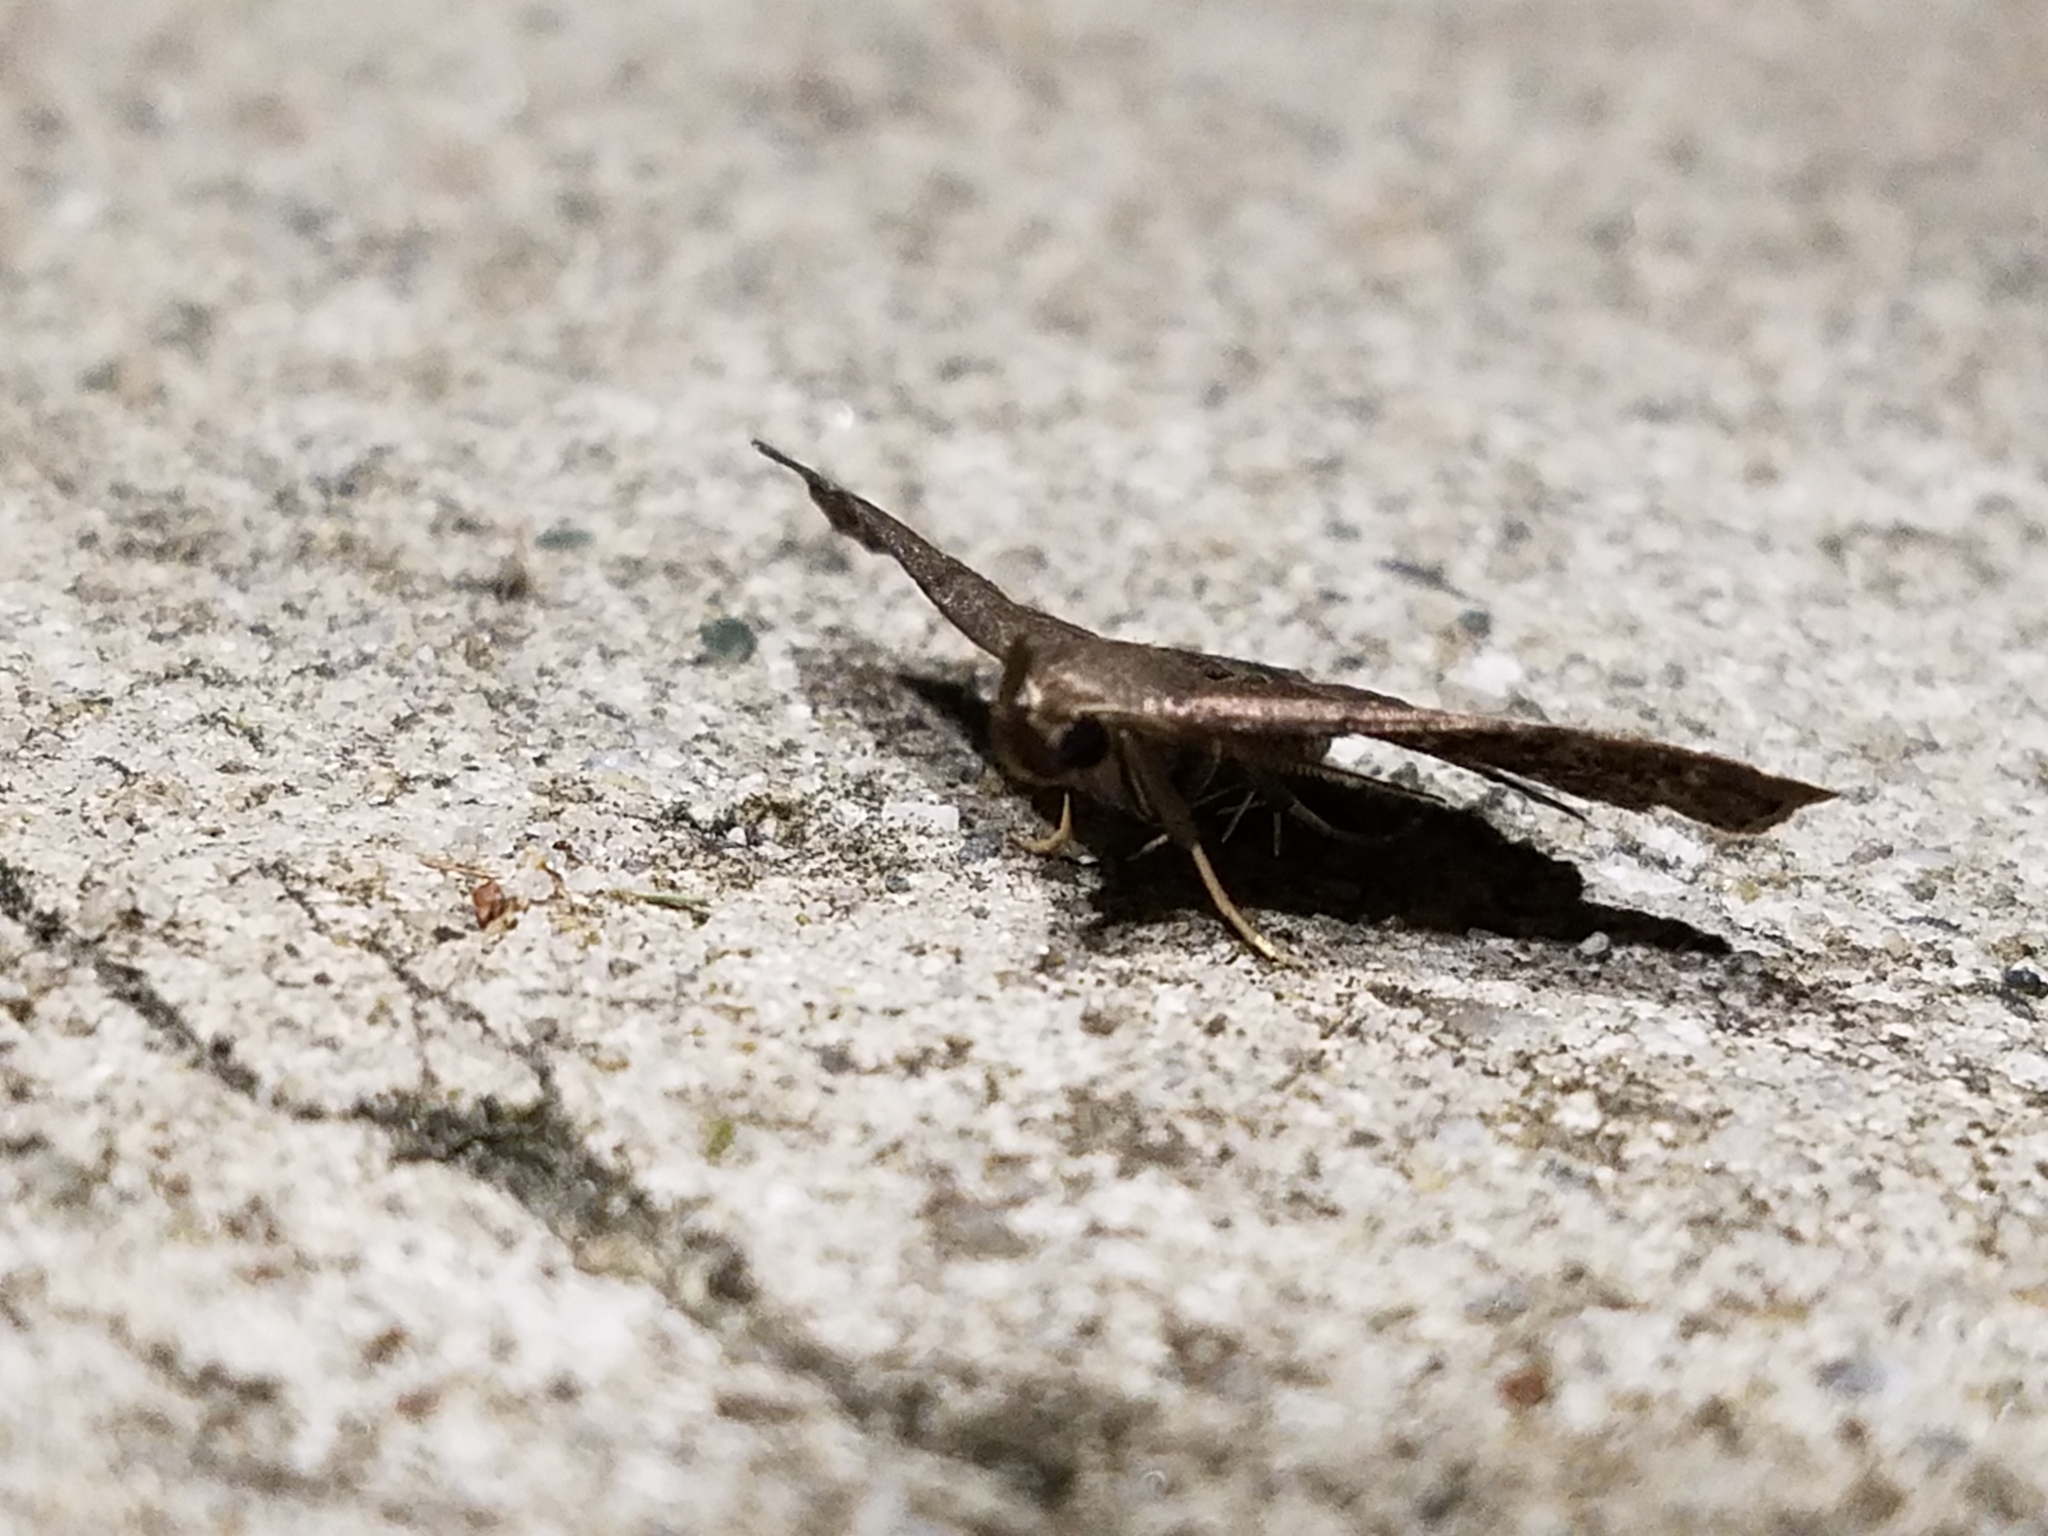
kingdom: Animalia
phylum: Arthropoda
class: Insecta
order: Lepidoptera
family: Erebidae
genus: Phalaenostola
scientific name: Phalaenostola larentioides
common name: Black-banded owlet
